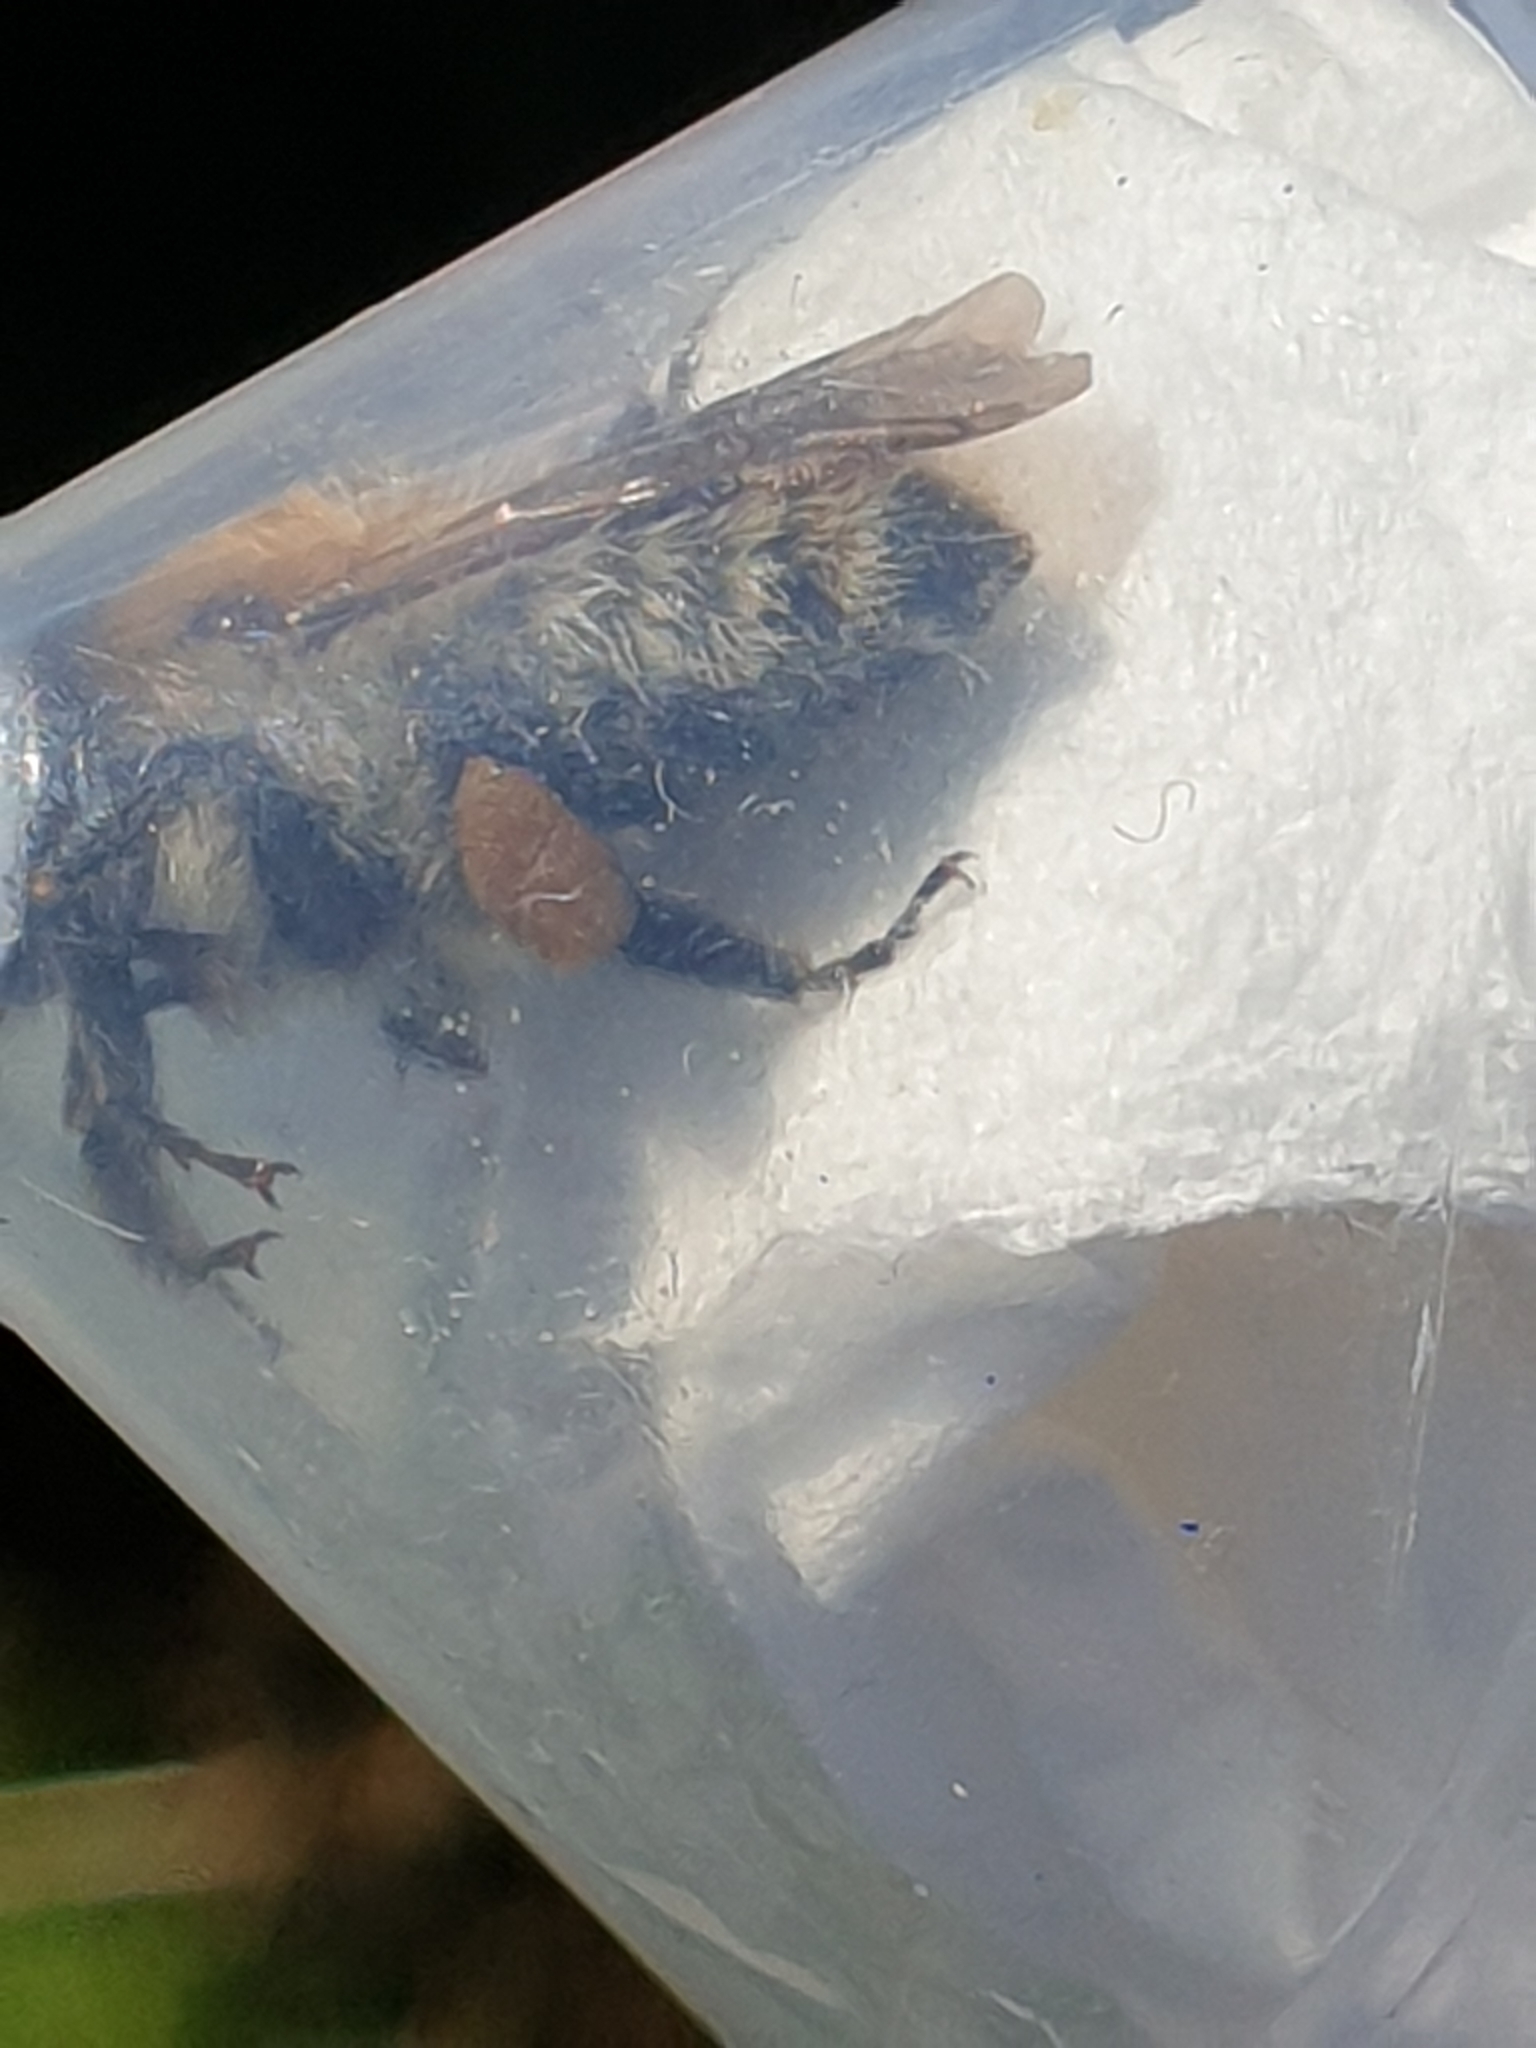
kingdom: Animalia
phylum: Arthropoda
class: Insecta
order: Hymenoptera
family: Apidae
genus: Bombus
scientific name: Bombus pascuorum
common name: Common carder bee
